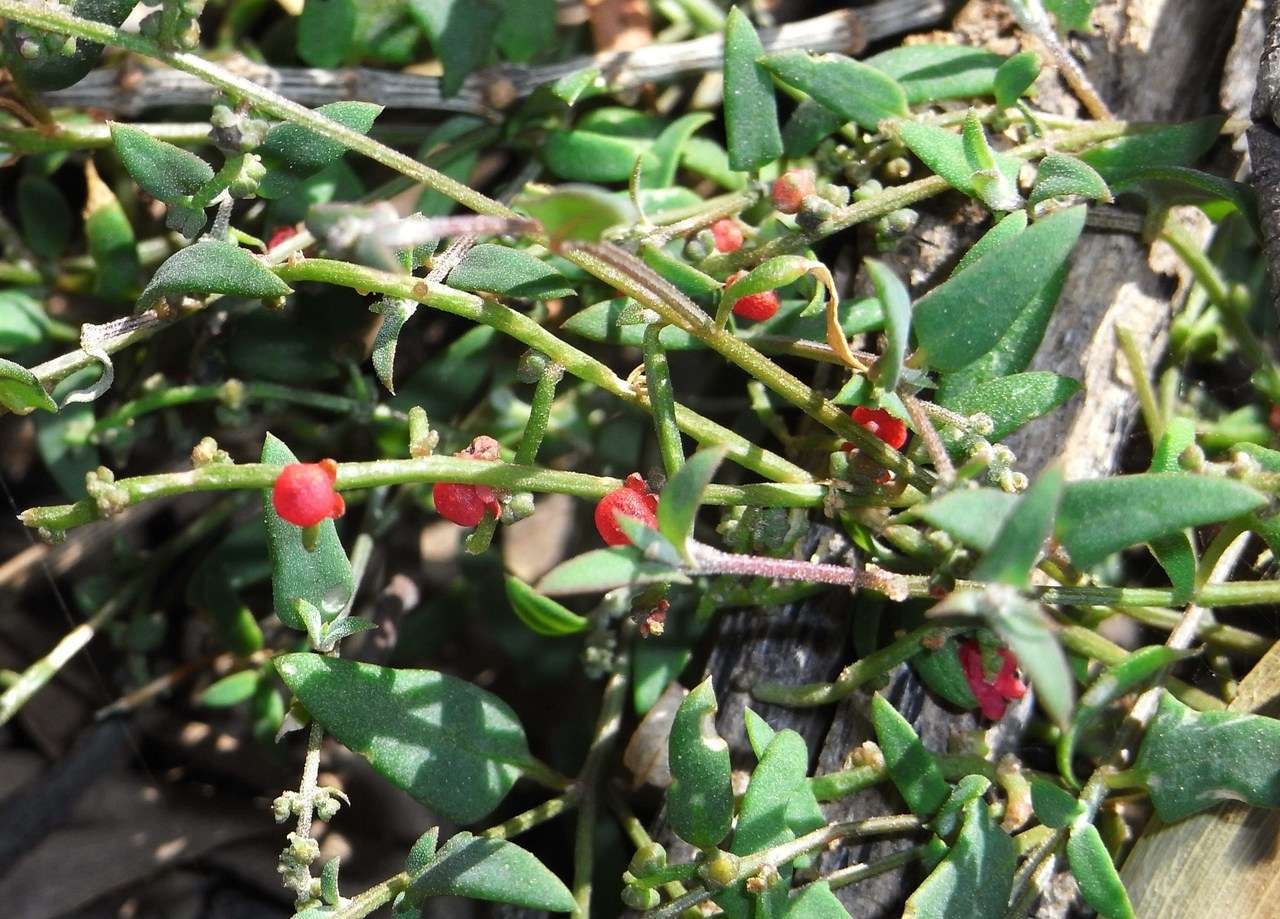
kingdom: Plantae
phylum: Tracheophyta
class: Magnoliopsida
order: Caryophyllales
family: Amaranthaceae
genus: Chenopodium
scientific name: Chenopodium nutans
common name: Climbing-saltbush
